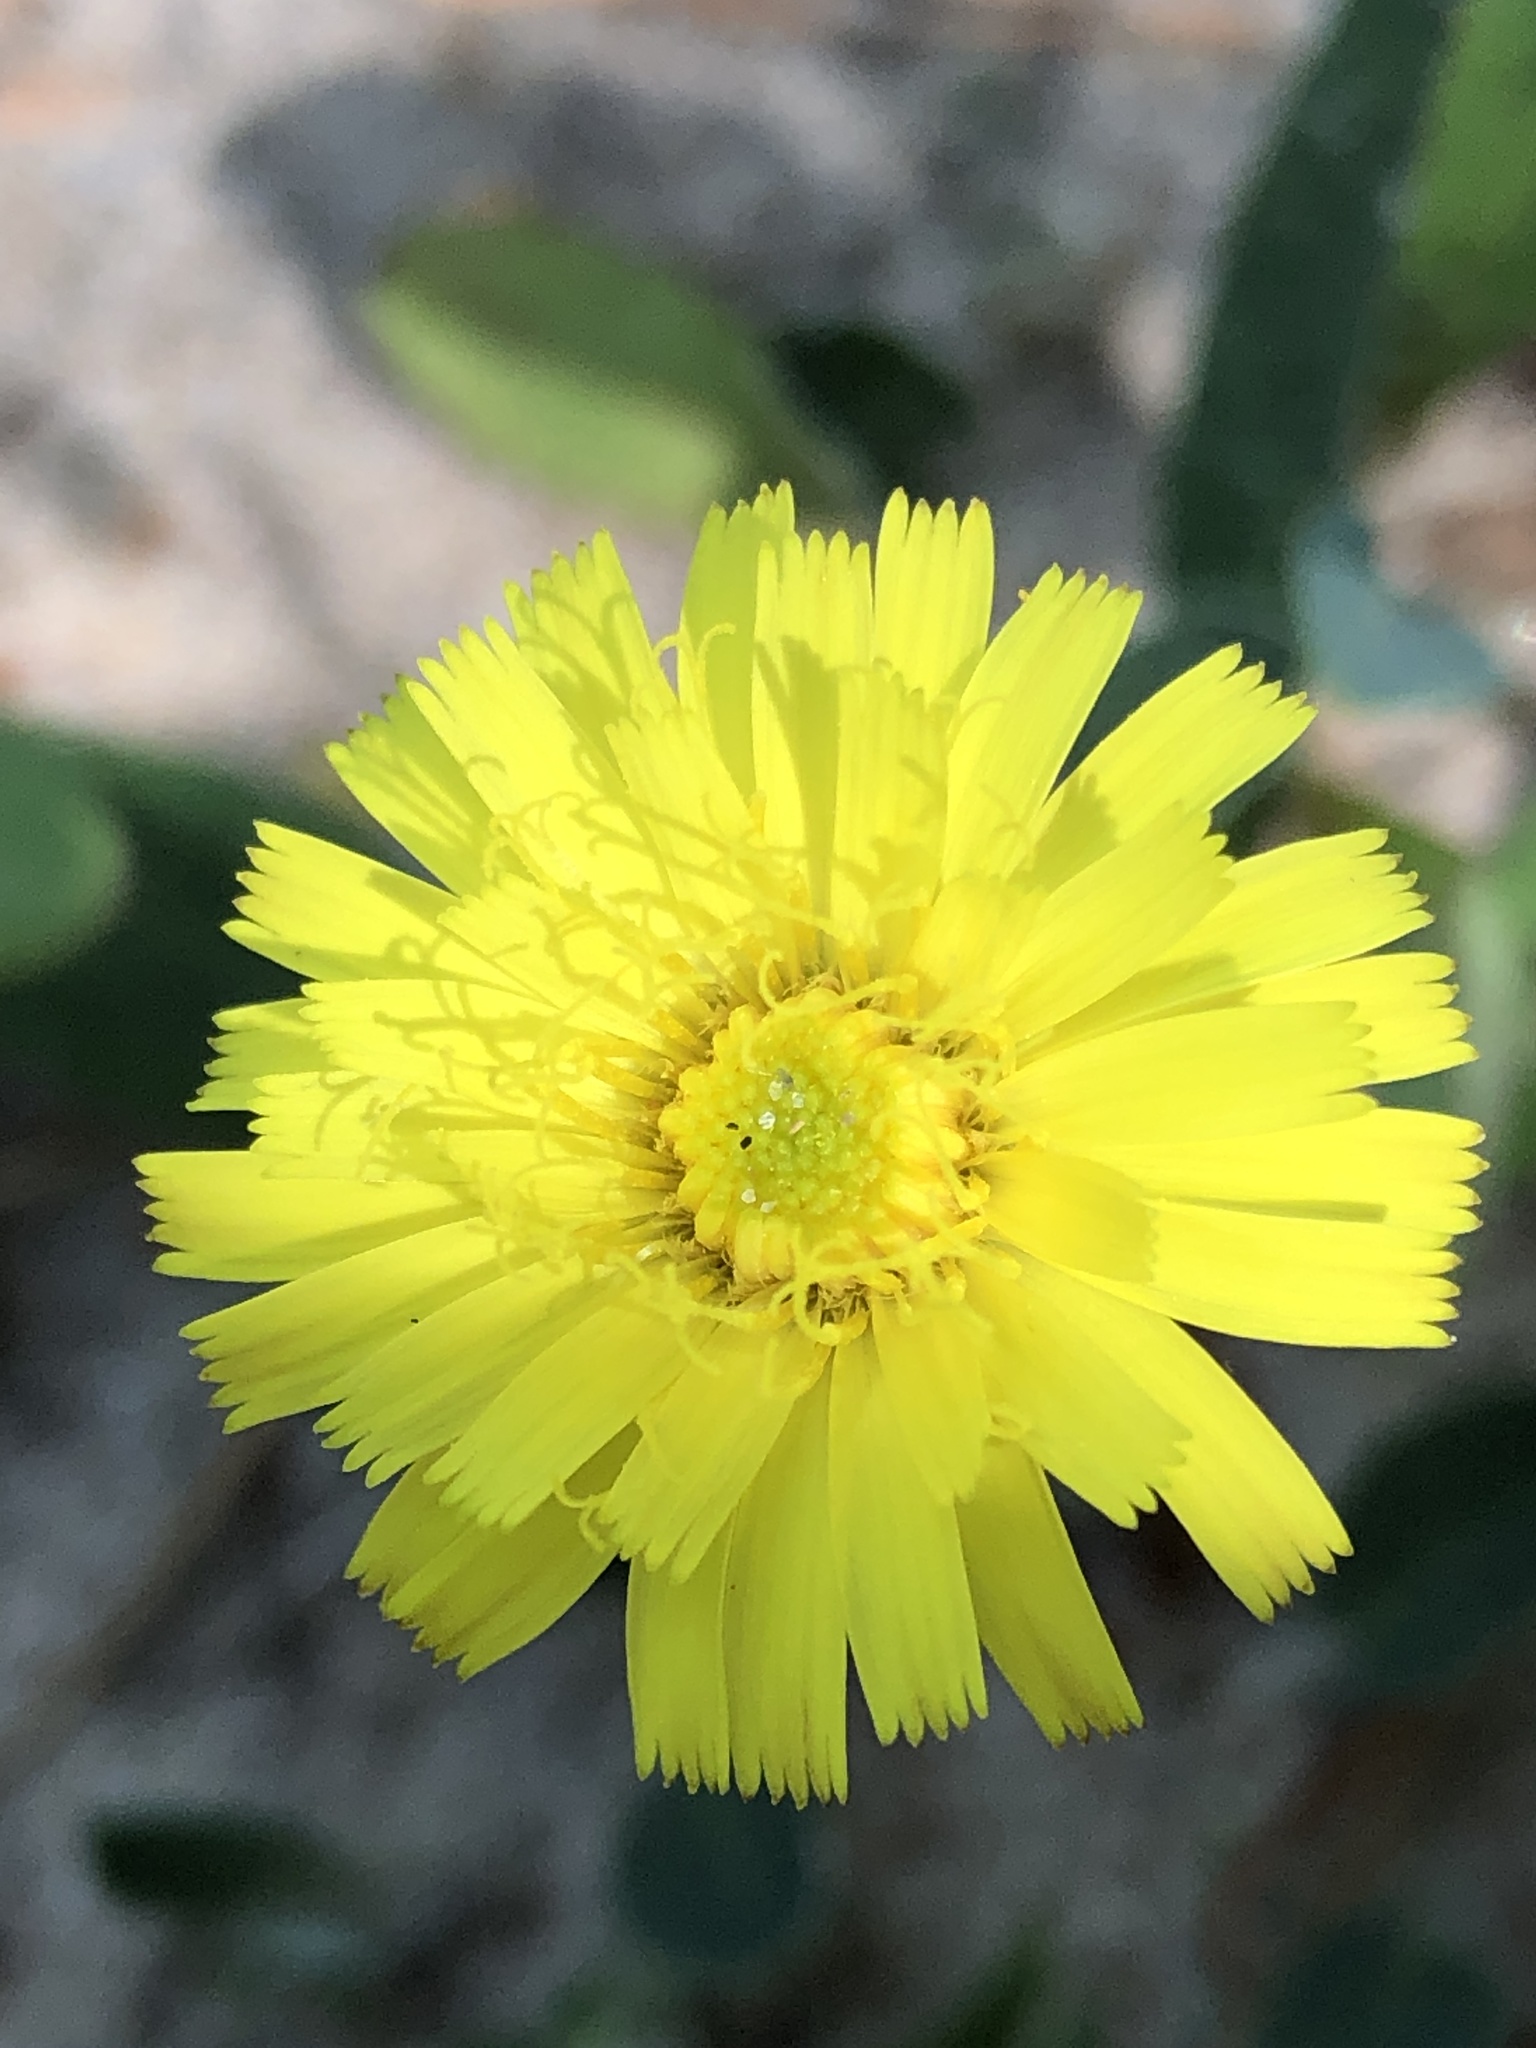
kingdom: Plantae
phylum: Tracheophyta
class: Magnoliopsida
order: Asterales
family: Asteraceae
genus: Pilosella
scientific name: Pilosella officinarum
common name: Mouse-ear hawkweed
